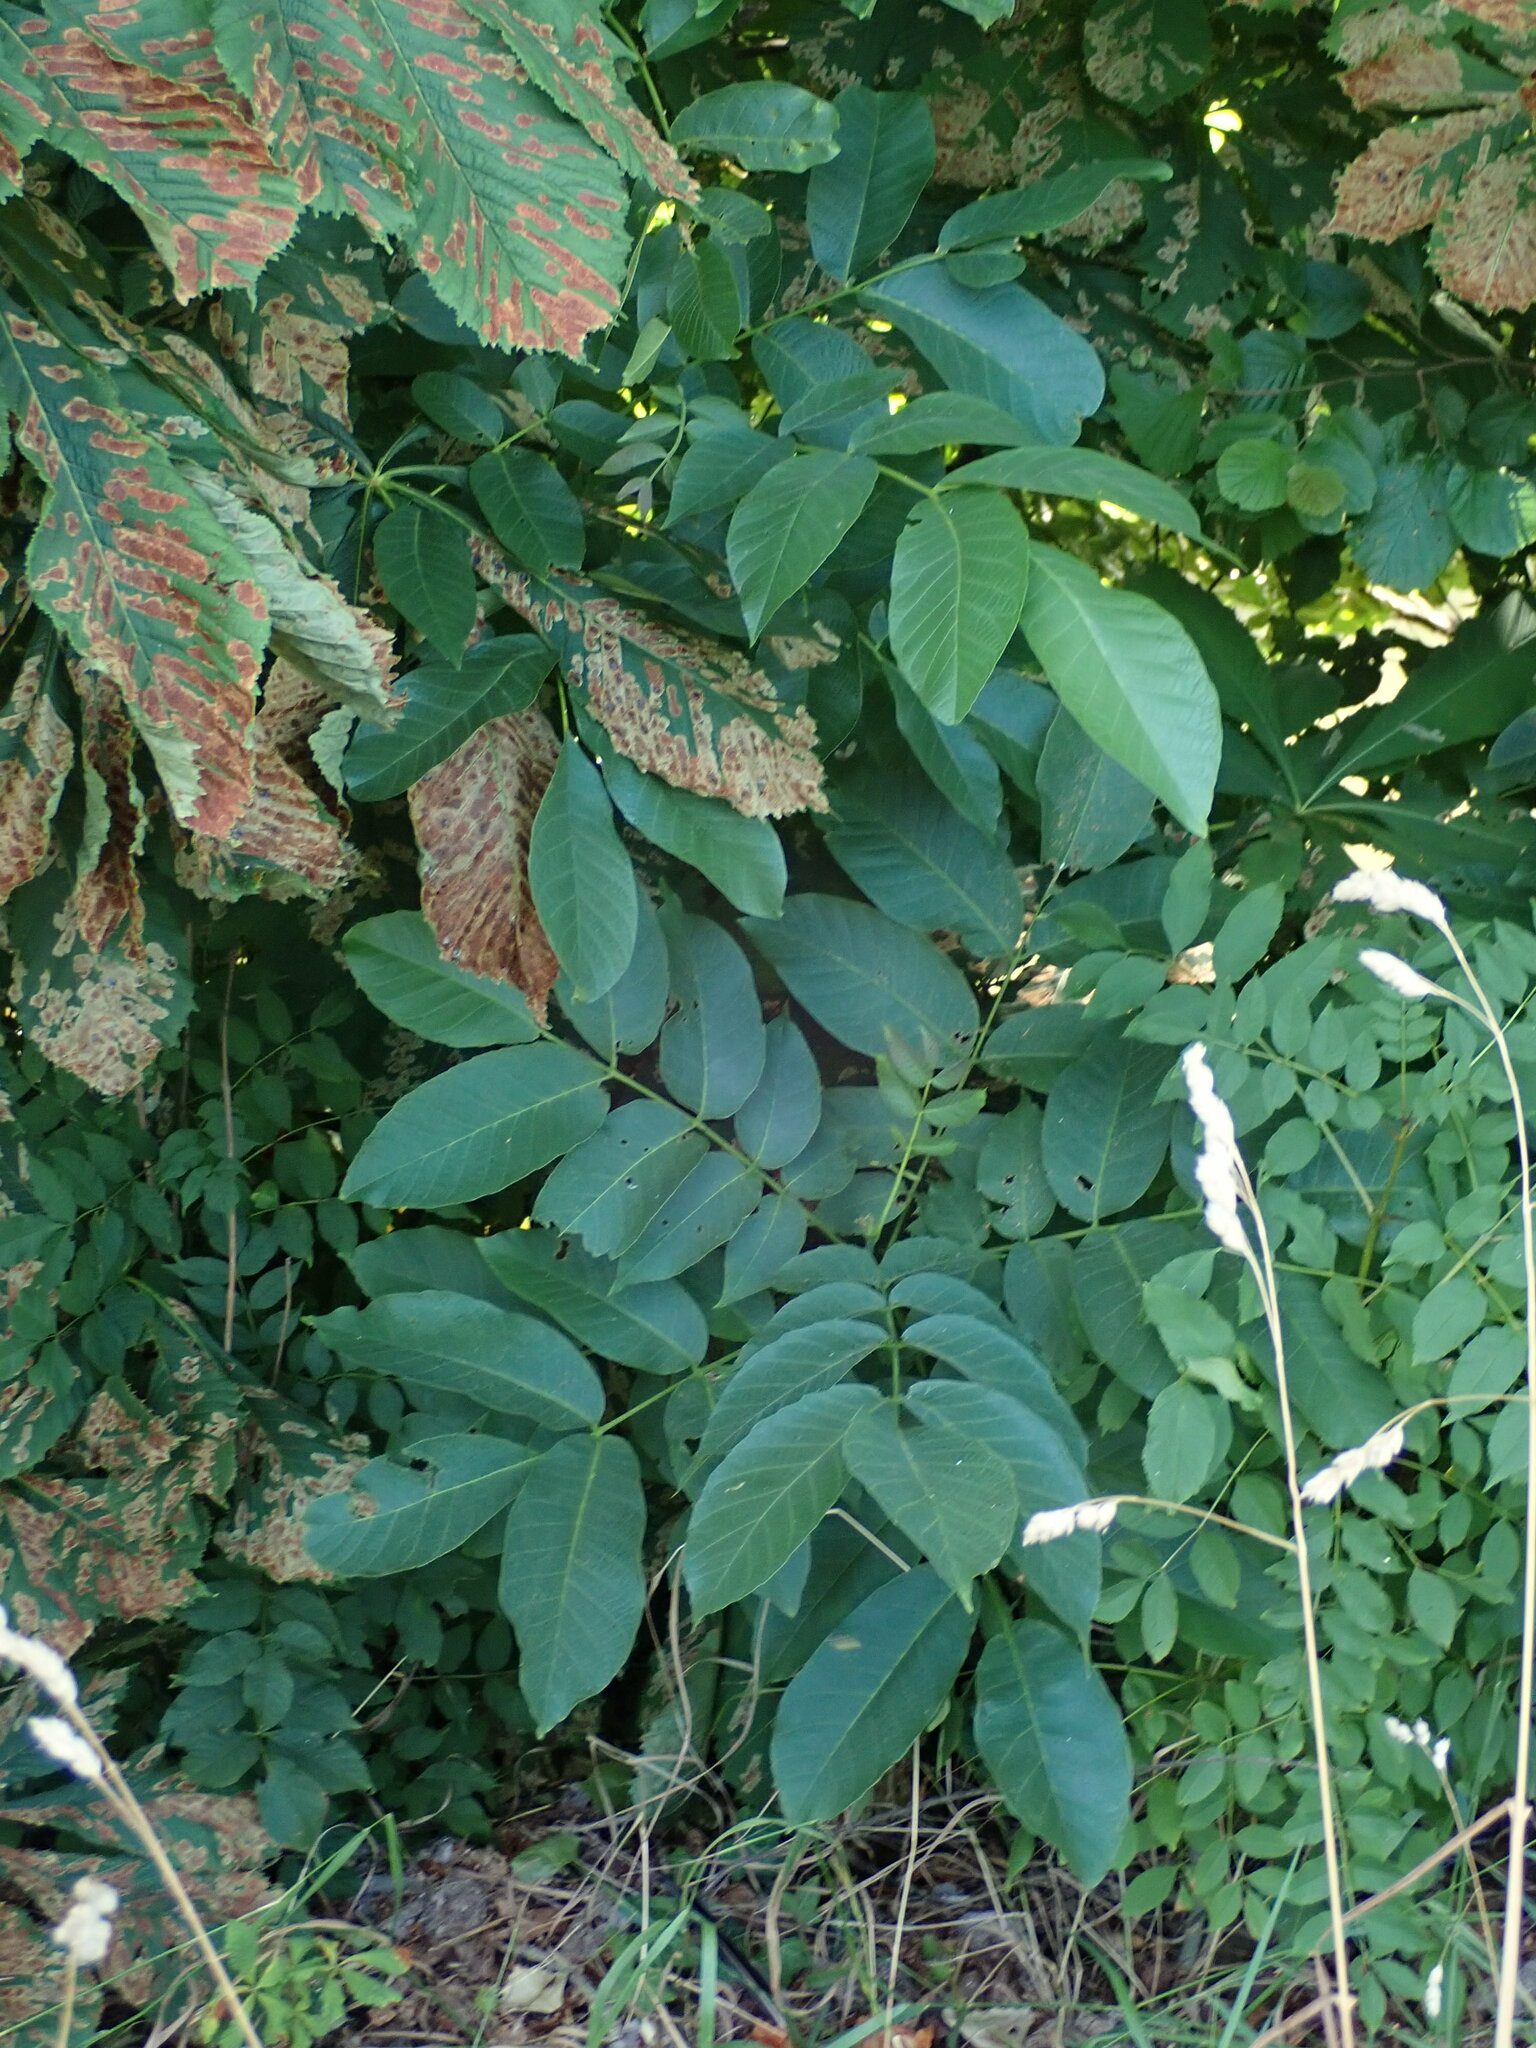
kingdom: Plantae
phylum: Tracheophyta
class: Magnoliopsida
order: Fagales
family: Juglandaceae
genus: Juglans
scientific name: Juglans regia
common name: Walnut
